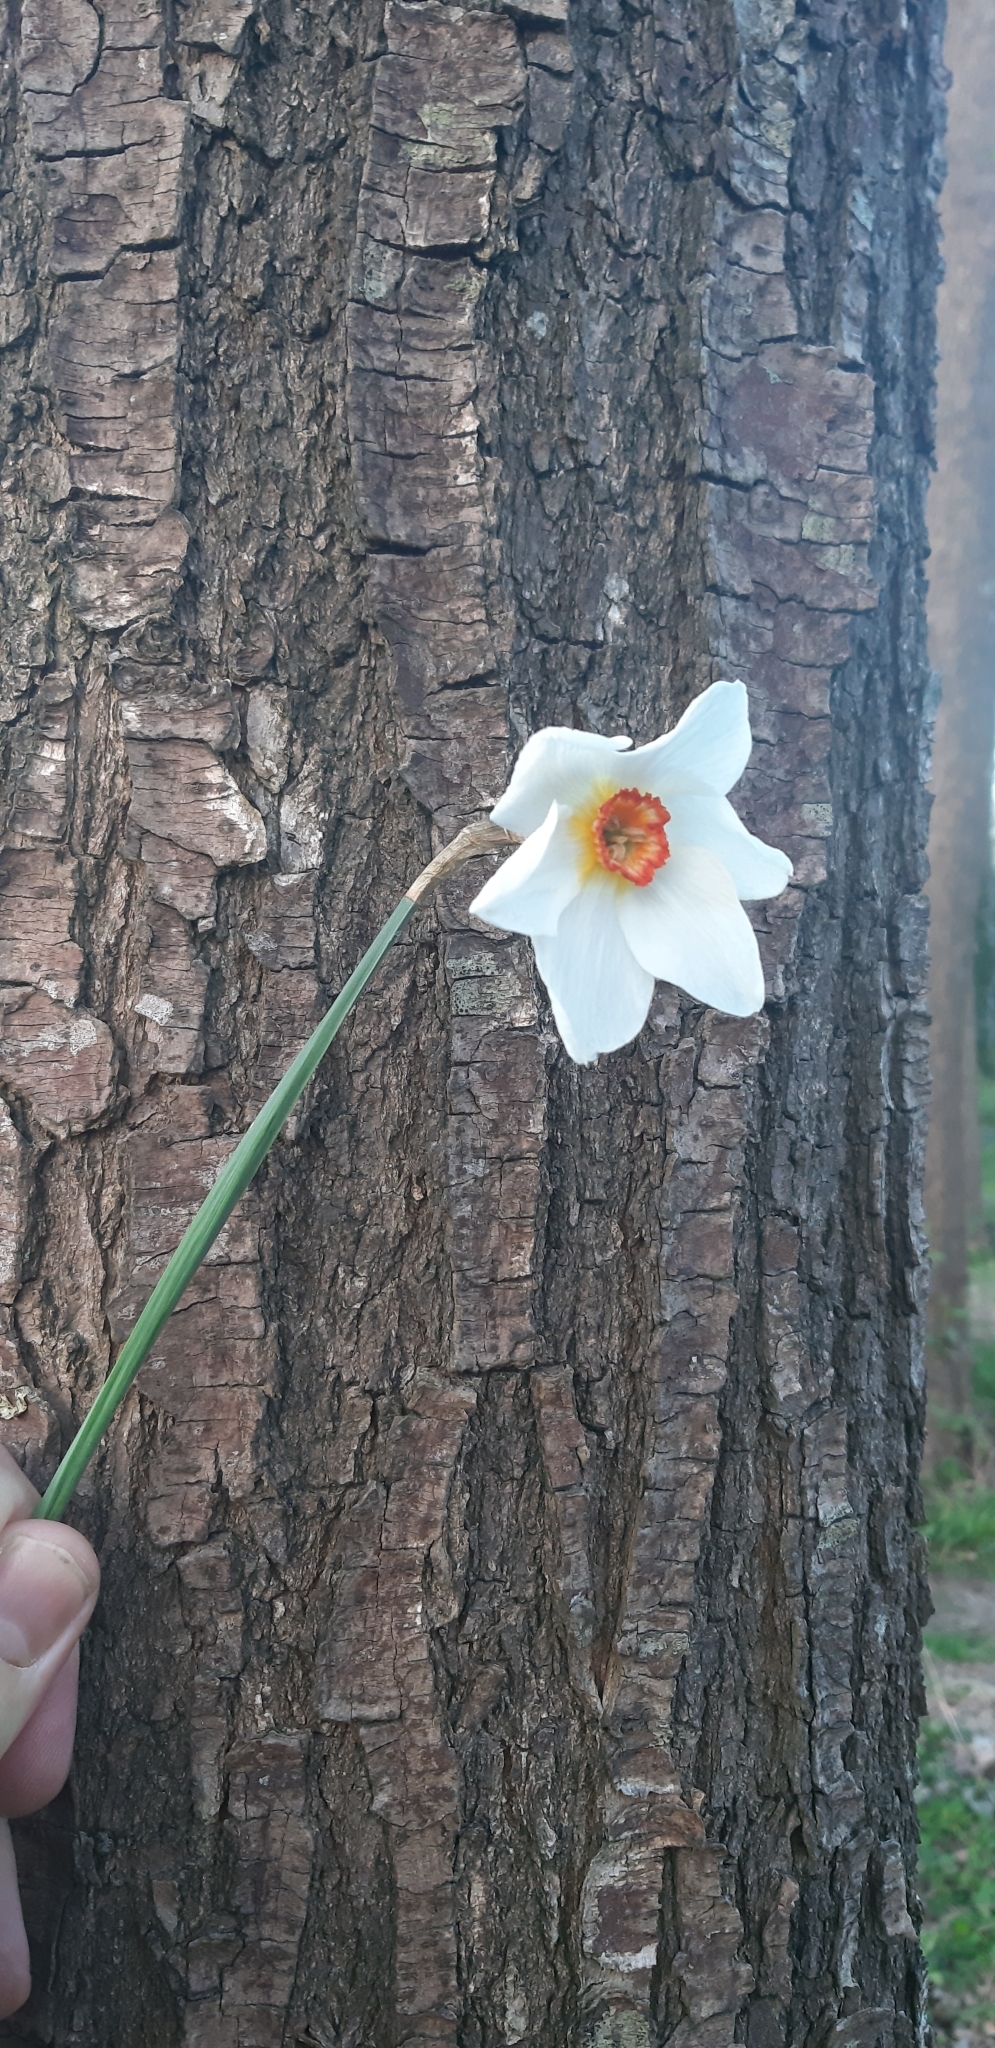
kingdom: Plantae
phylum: Tracheophyta
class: Liliopsida
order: Asparagales
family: Amaryllidaceae
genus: Narcissus
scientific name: Narcissus poeticus
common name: Pheasant's-eye daffodil
